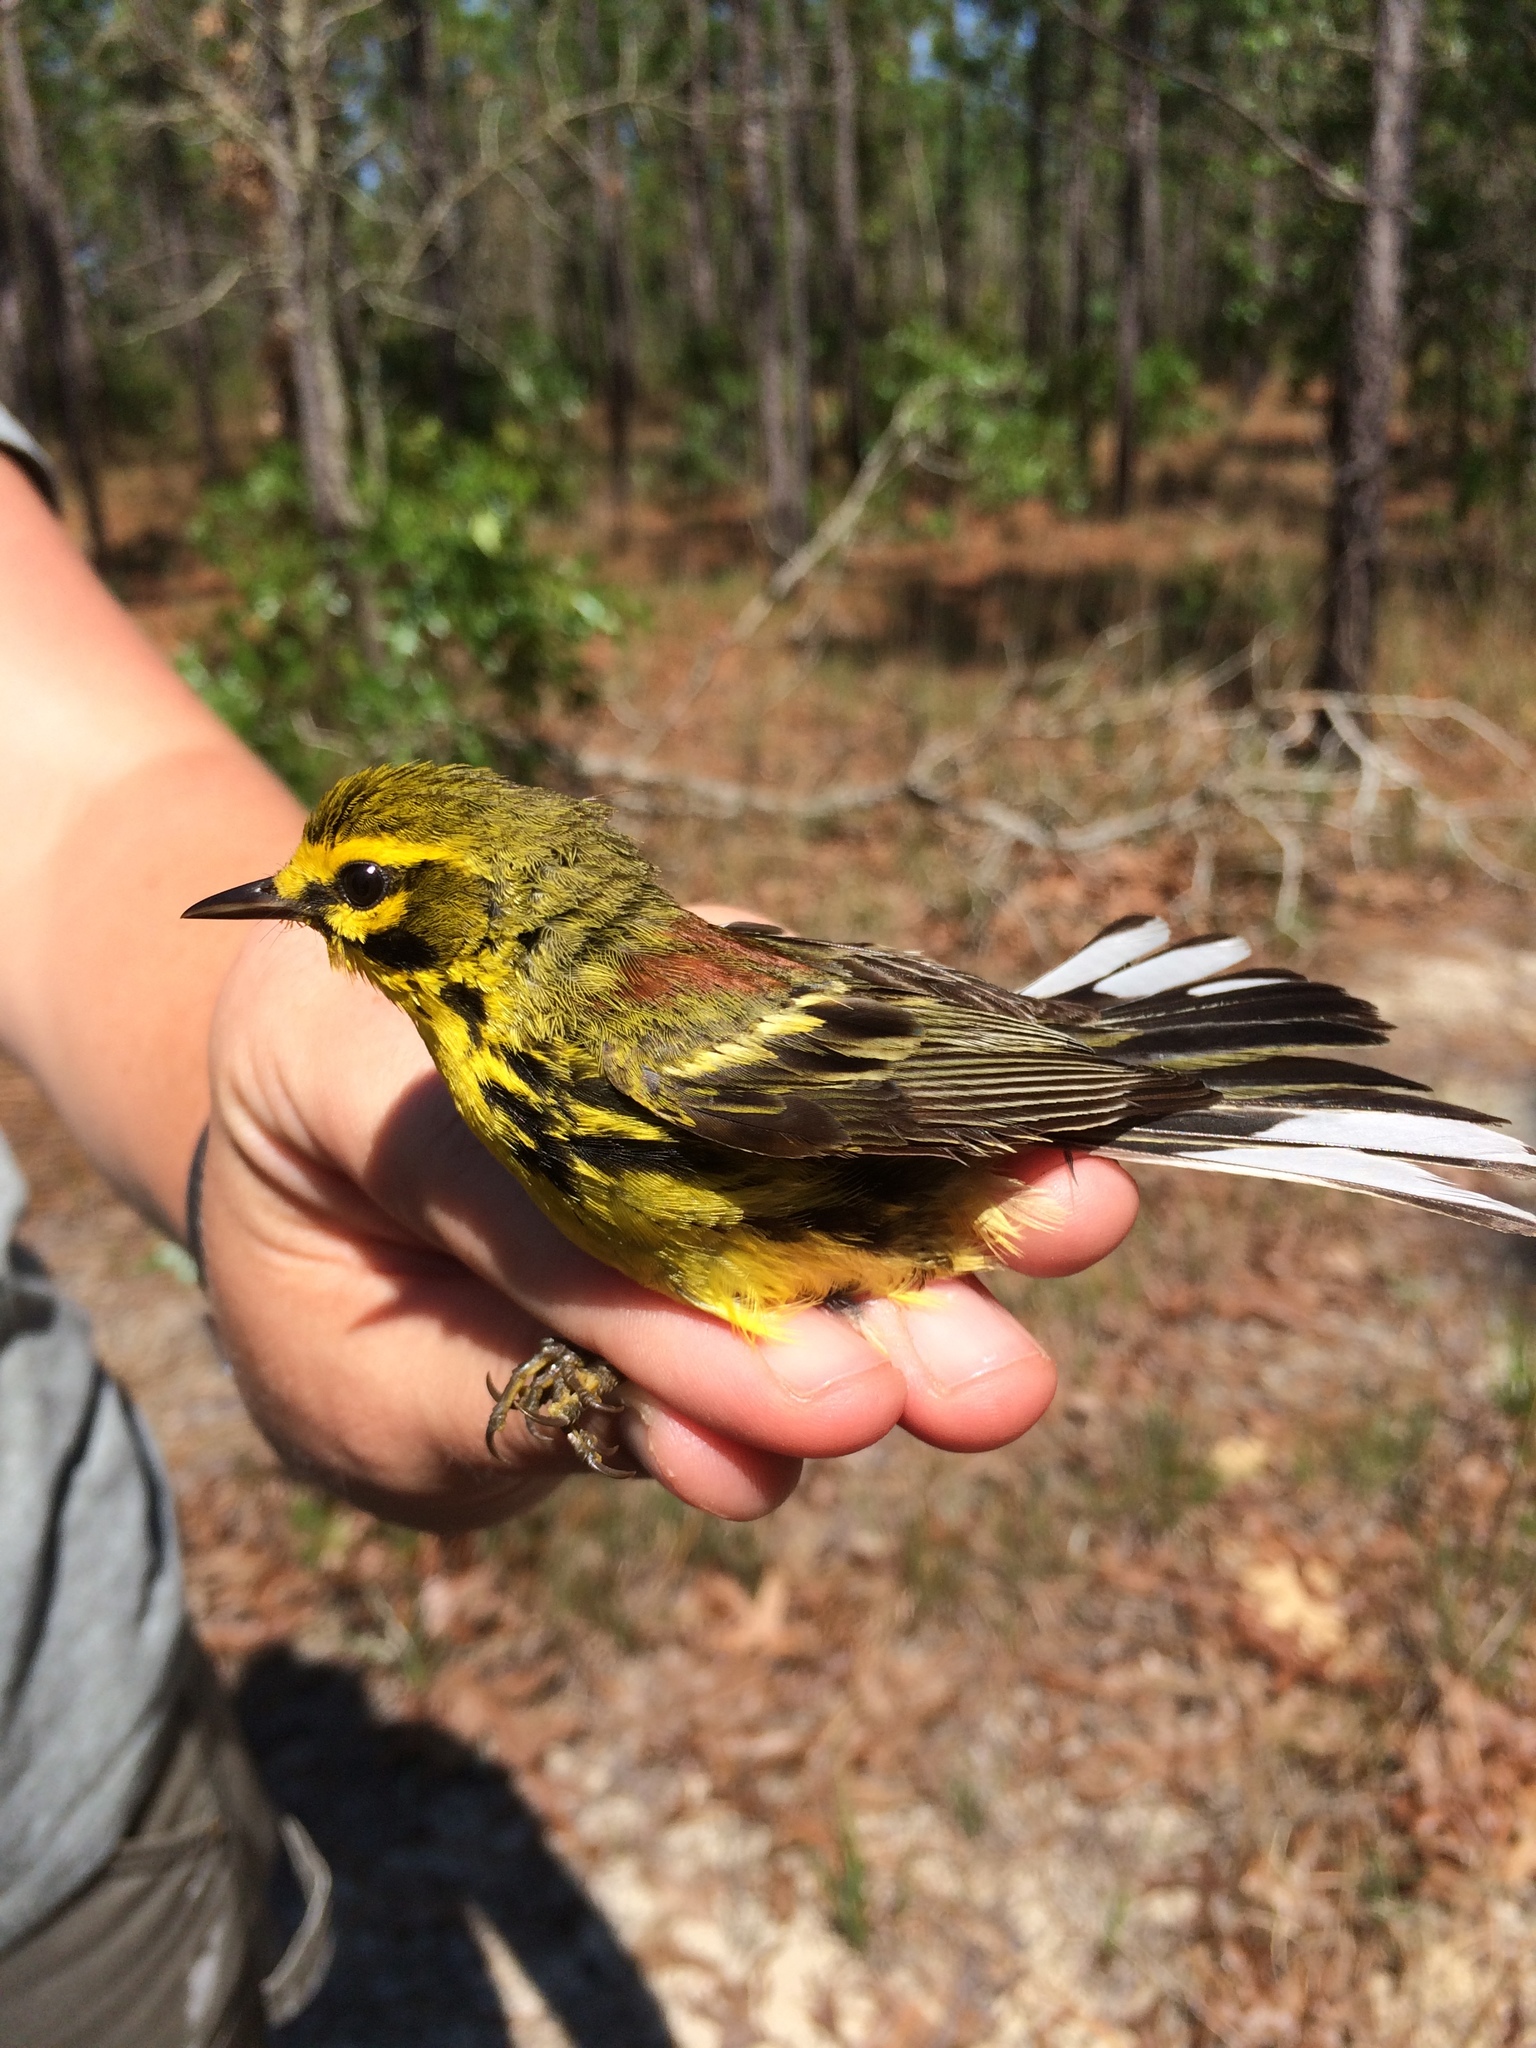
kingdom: Animalia
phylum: Chordata
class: Aves
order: Passeriformes
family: Parulidae
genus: Setophaga
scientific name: Setophaga discolor
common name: Prairie warbler
